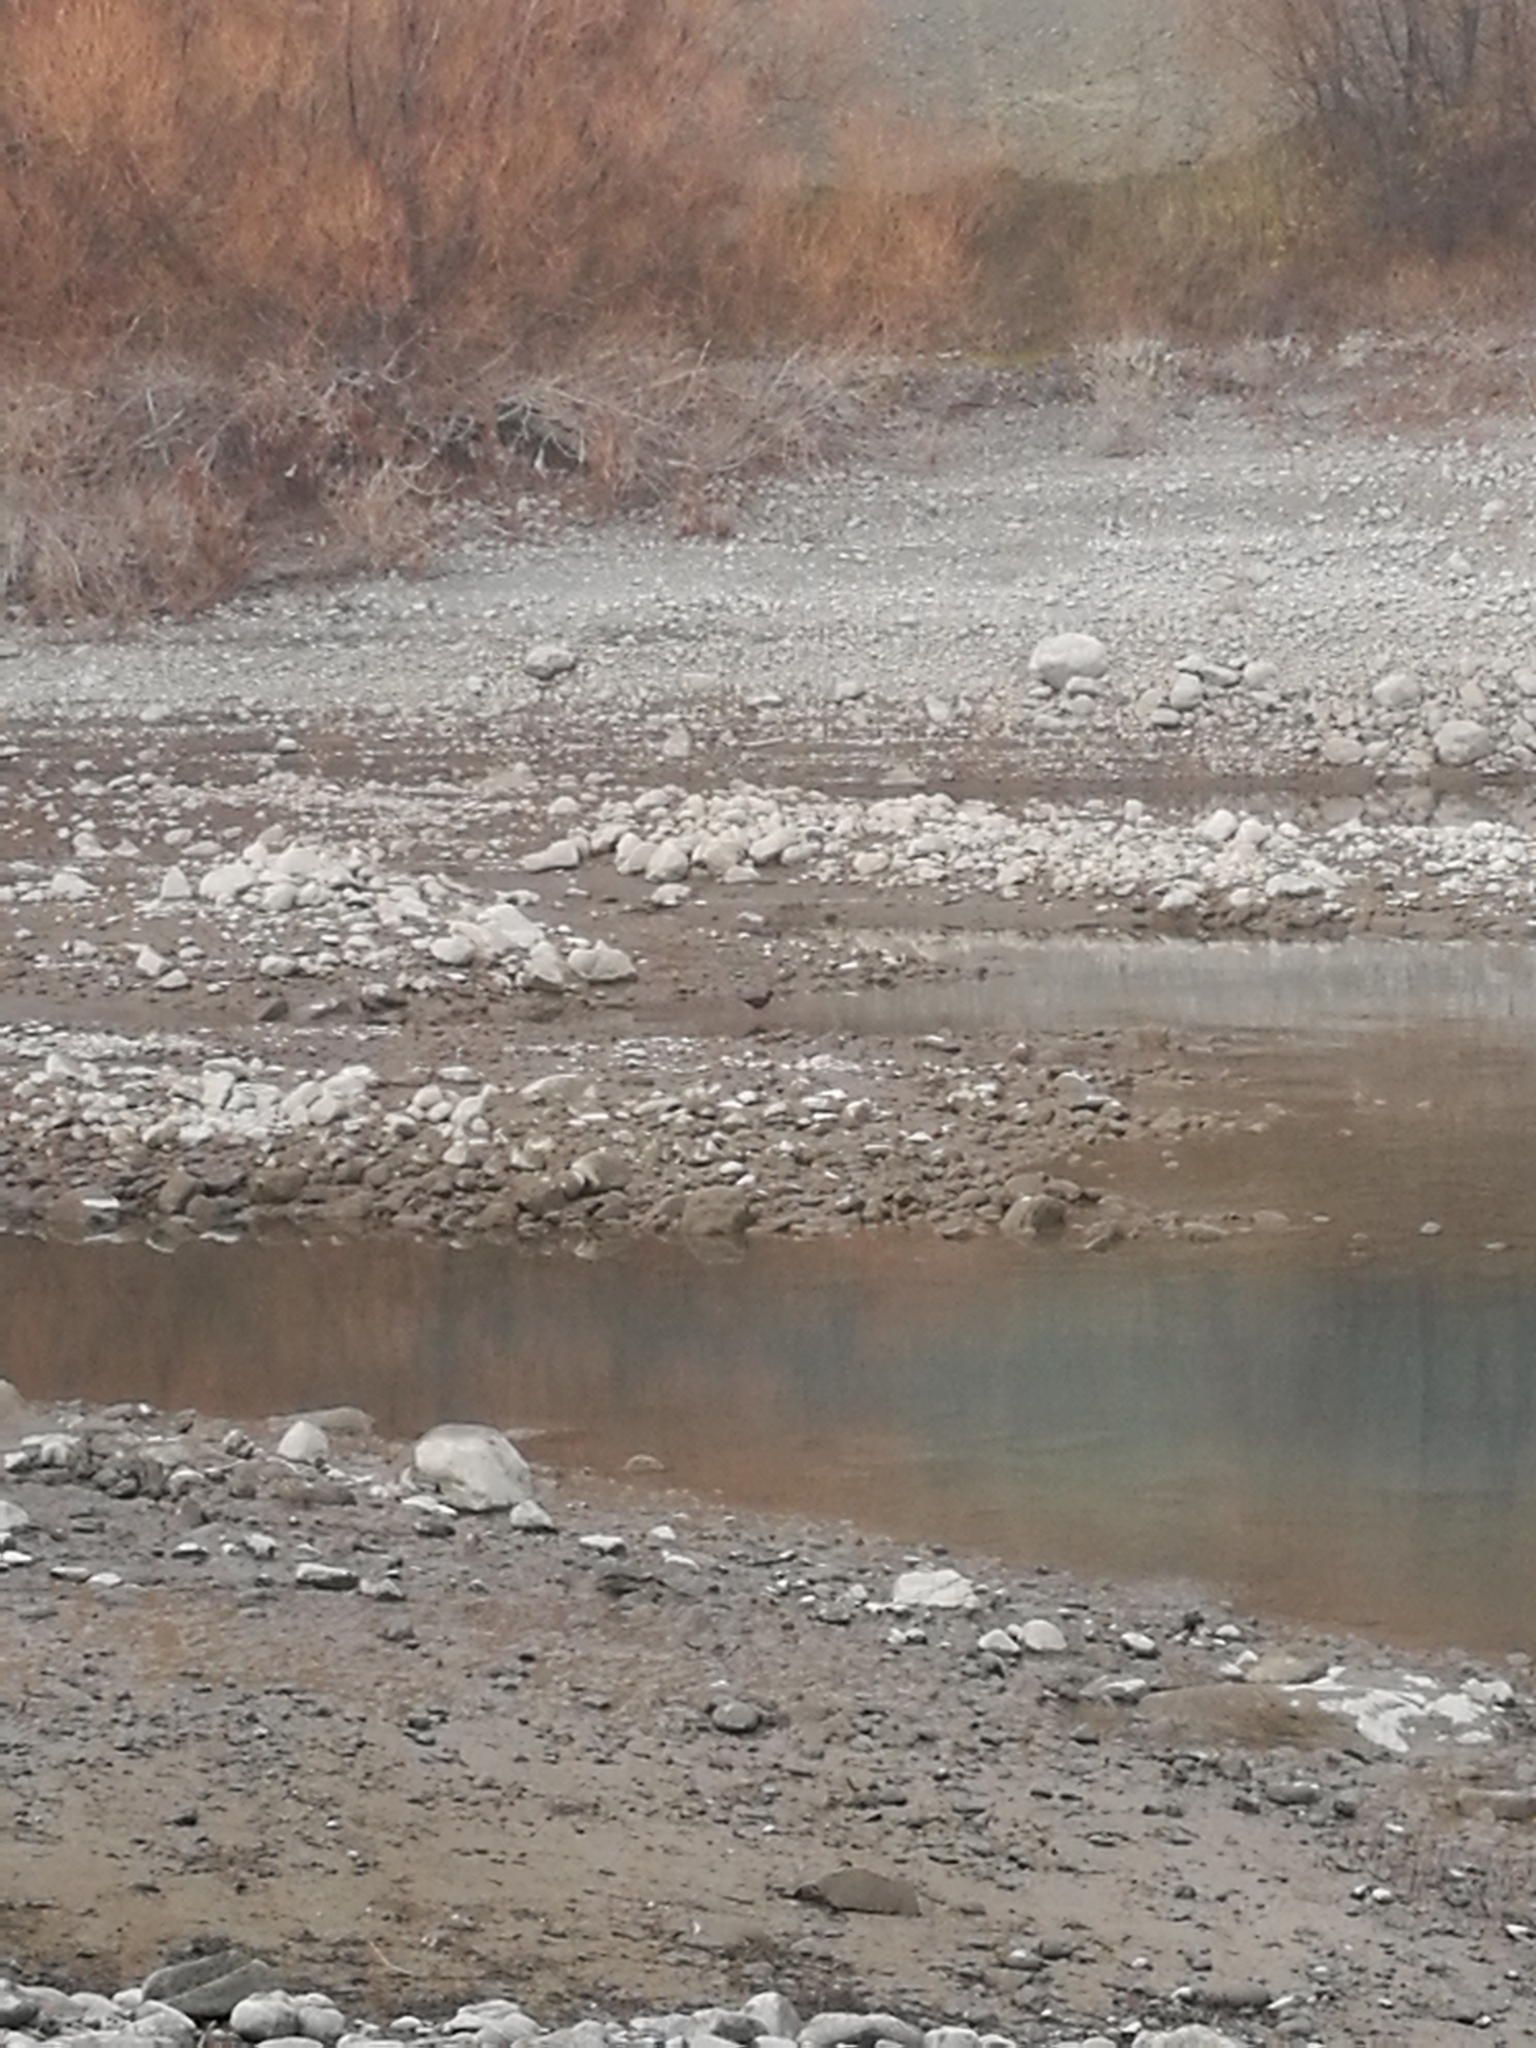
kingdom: Animalia
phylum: Chordata
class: Aves
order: Charadriiformes
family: Recurvirostridae
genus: Himantopus
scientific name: Himantopus novaezelandiae
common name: Black stilt
